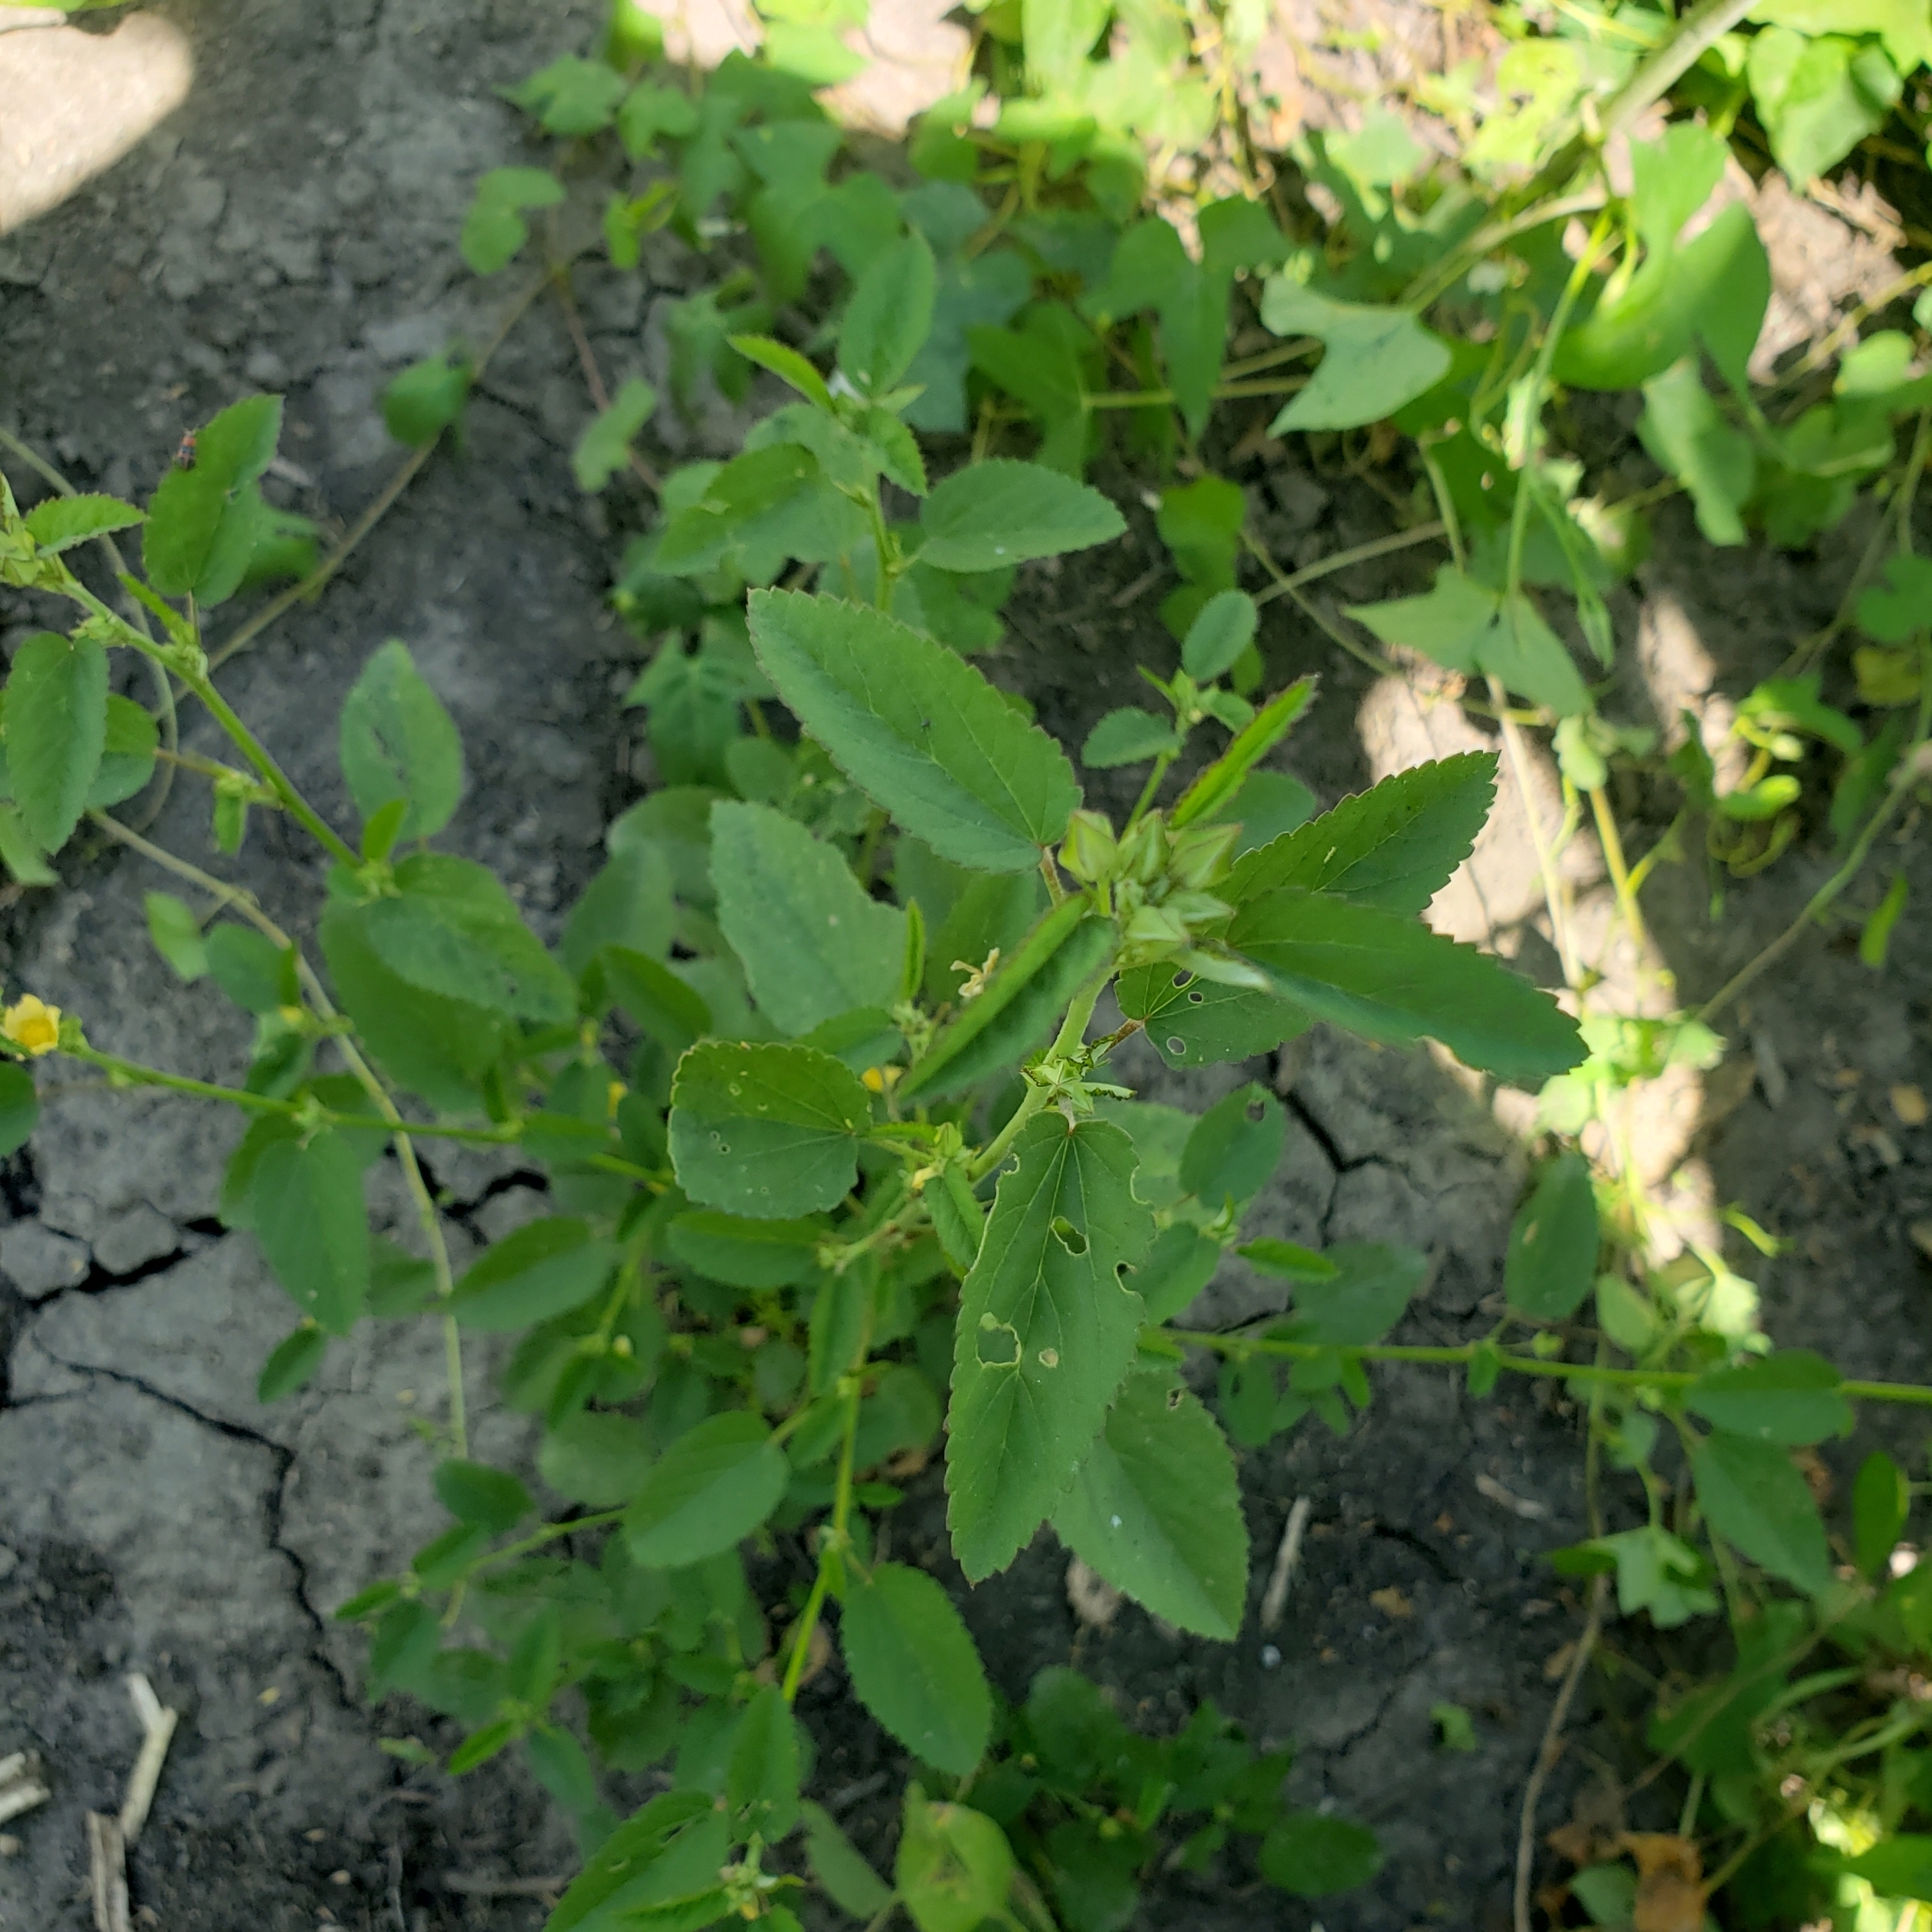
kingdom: Plantae
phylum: Tracheophyta
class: Magnoliopsida
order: Malvales
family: Malvaceae
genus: Sida
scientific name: Sida spinosa
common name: Prickly fanpetals
